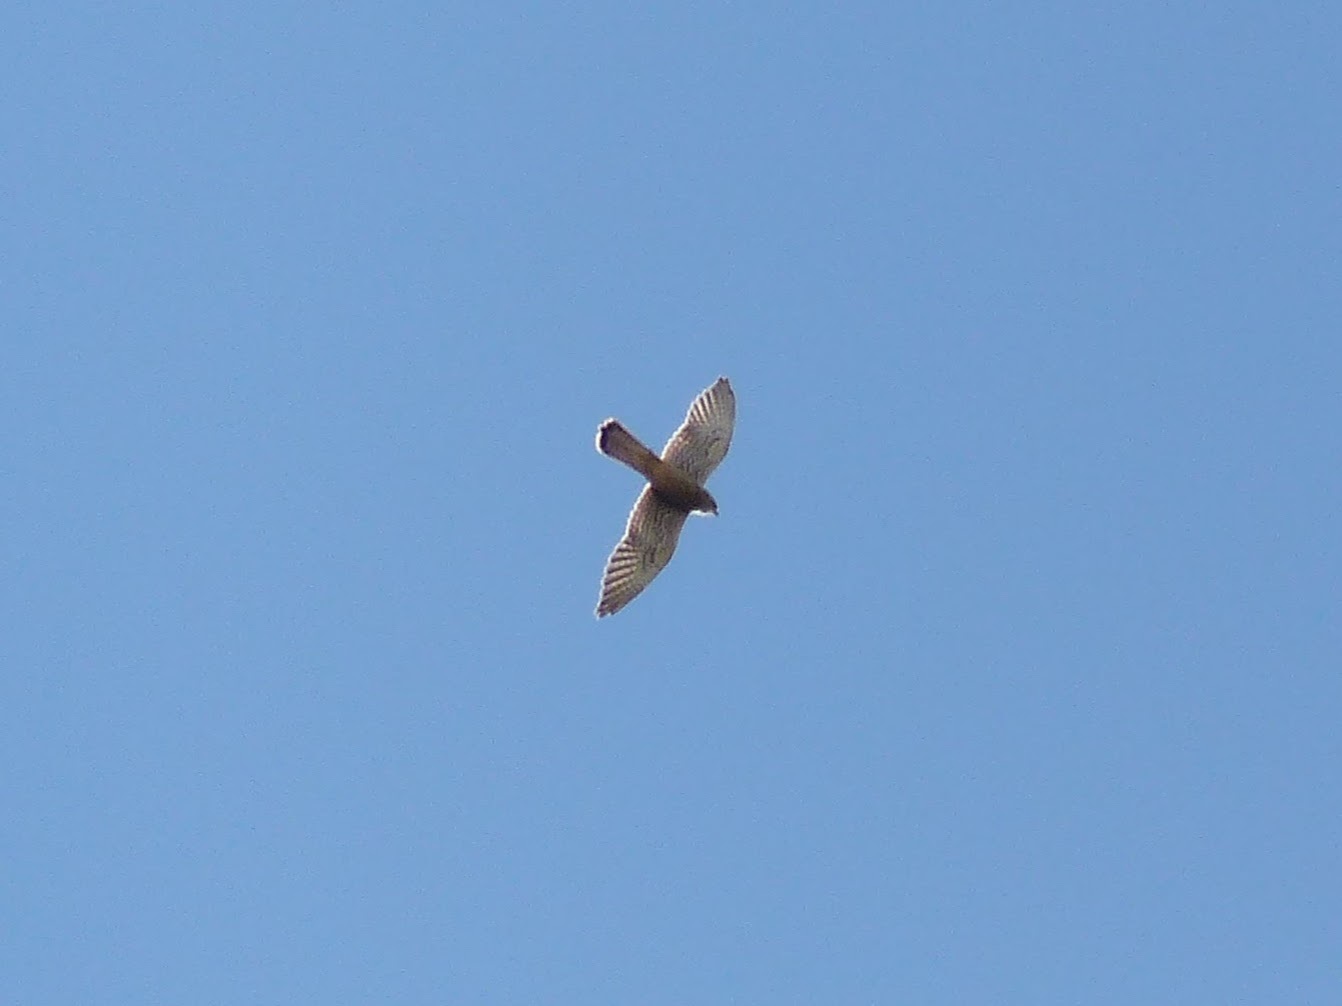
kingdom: Animalia
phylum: Chordata
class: Aves
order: Falconiformes
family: Falconidae
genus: Falco
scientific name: Falco naumanni
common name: Lesser kestrel
